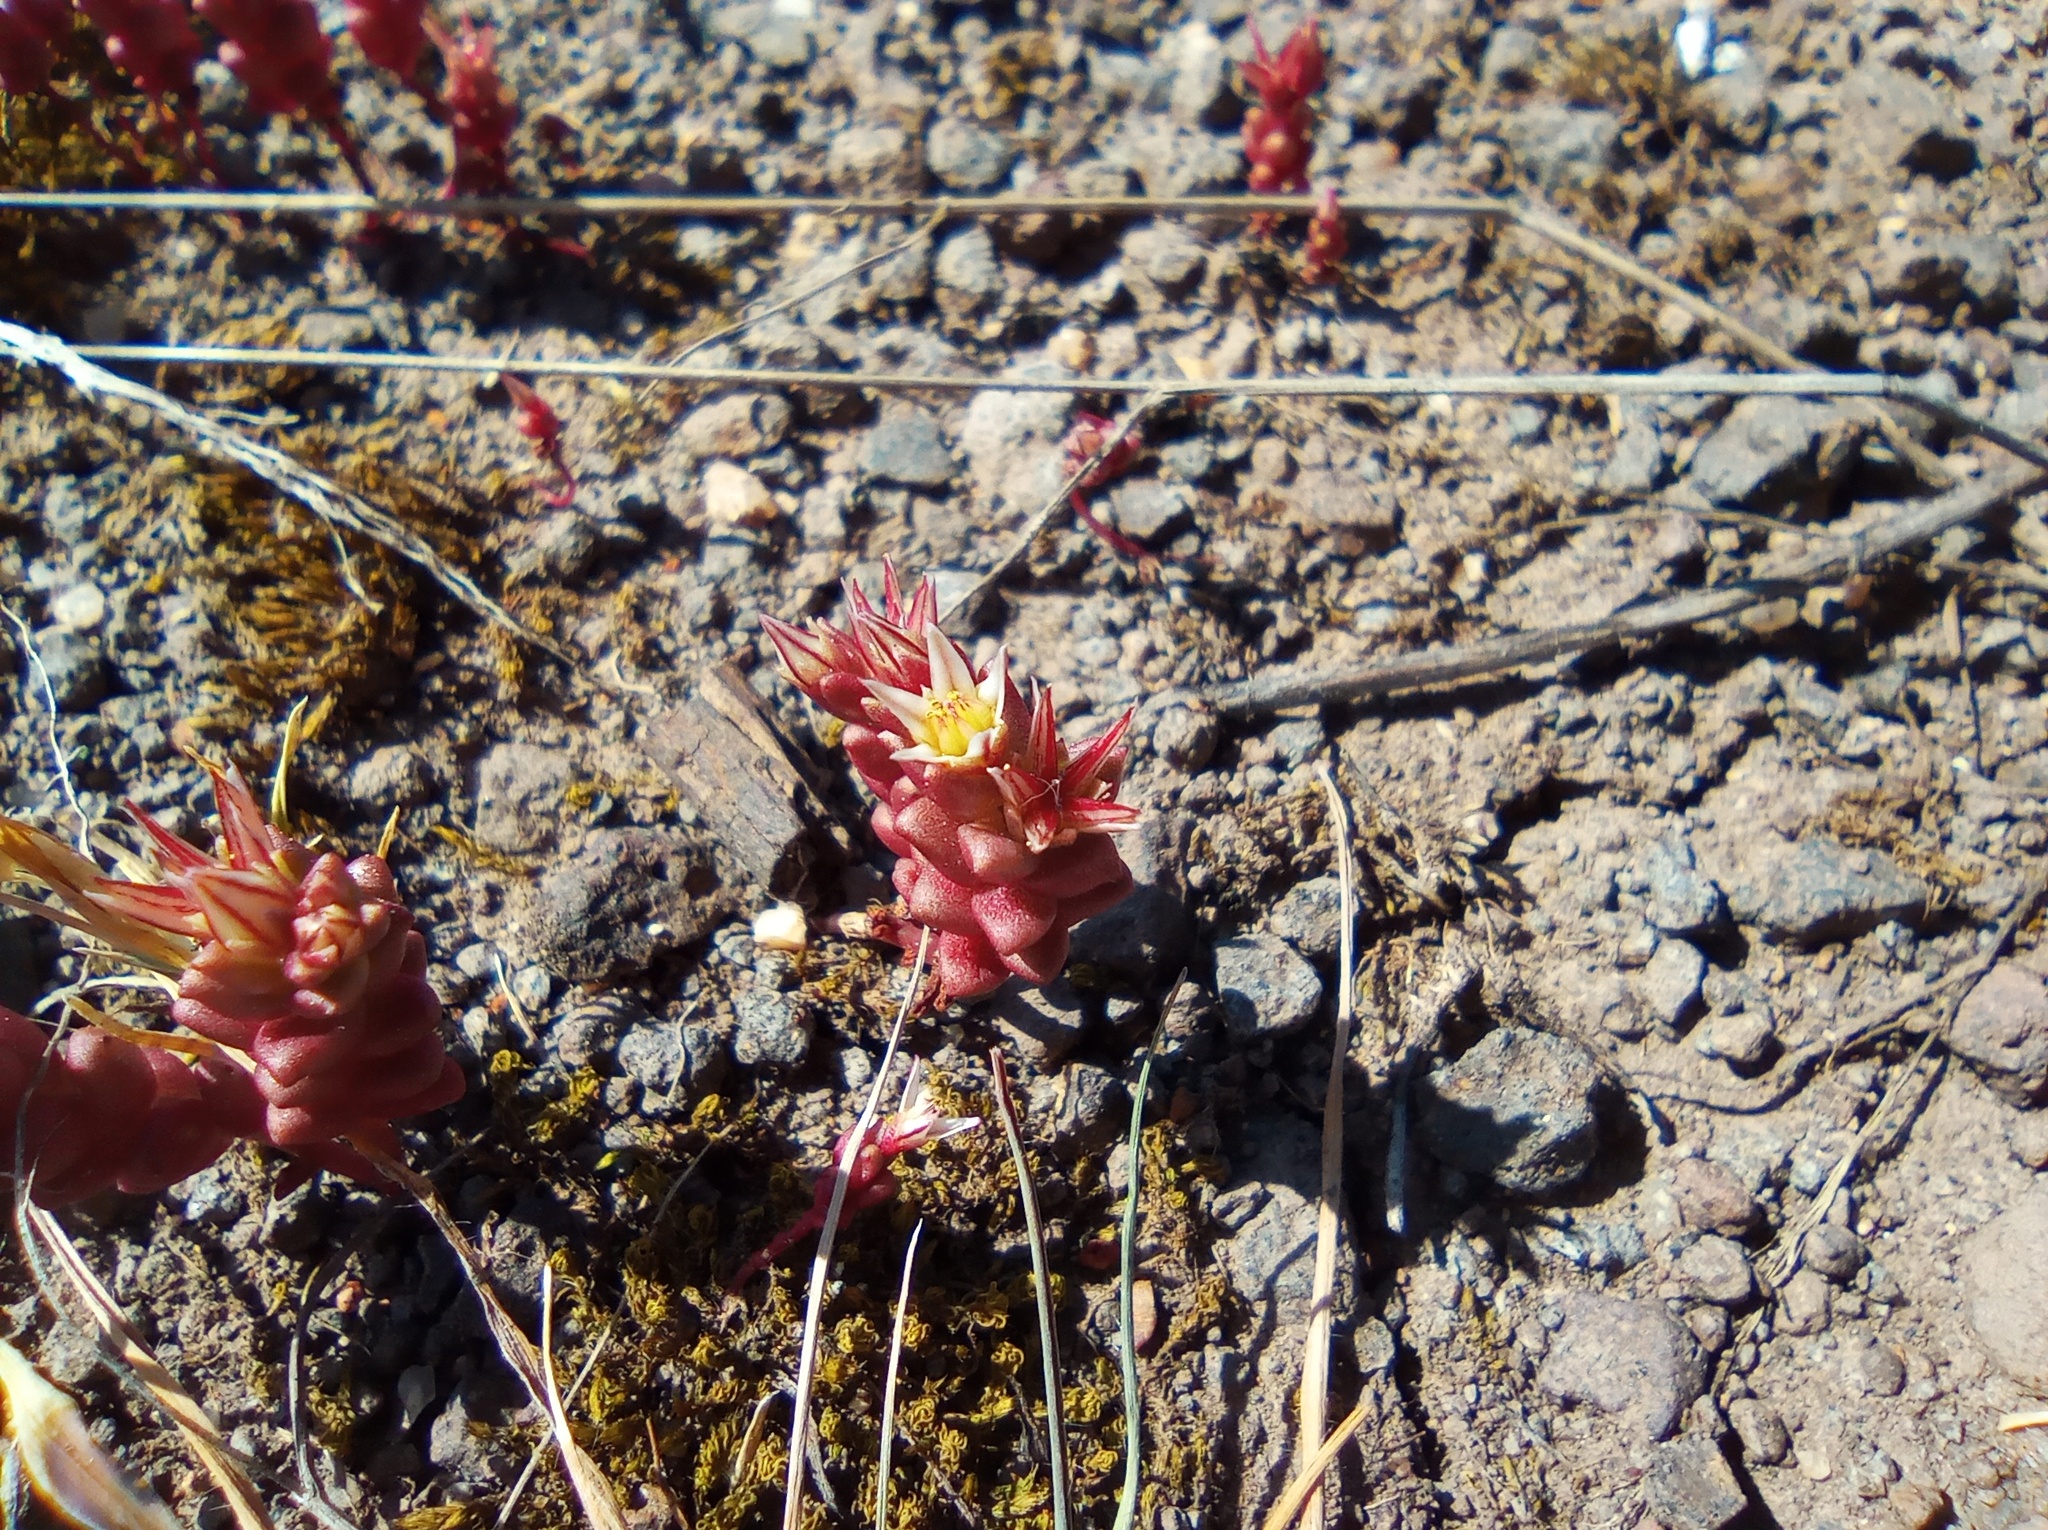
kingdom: Plantae
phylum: Tracheophyta
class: Magnoliopsida
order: Saxifragales
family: Crassulaceae
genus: Sedum
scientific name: Sedum cespitosum
